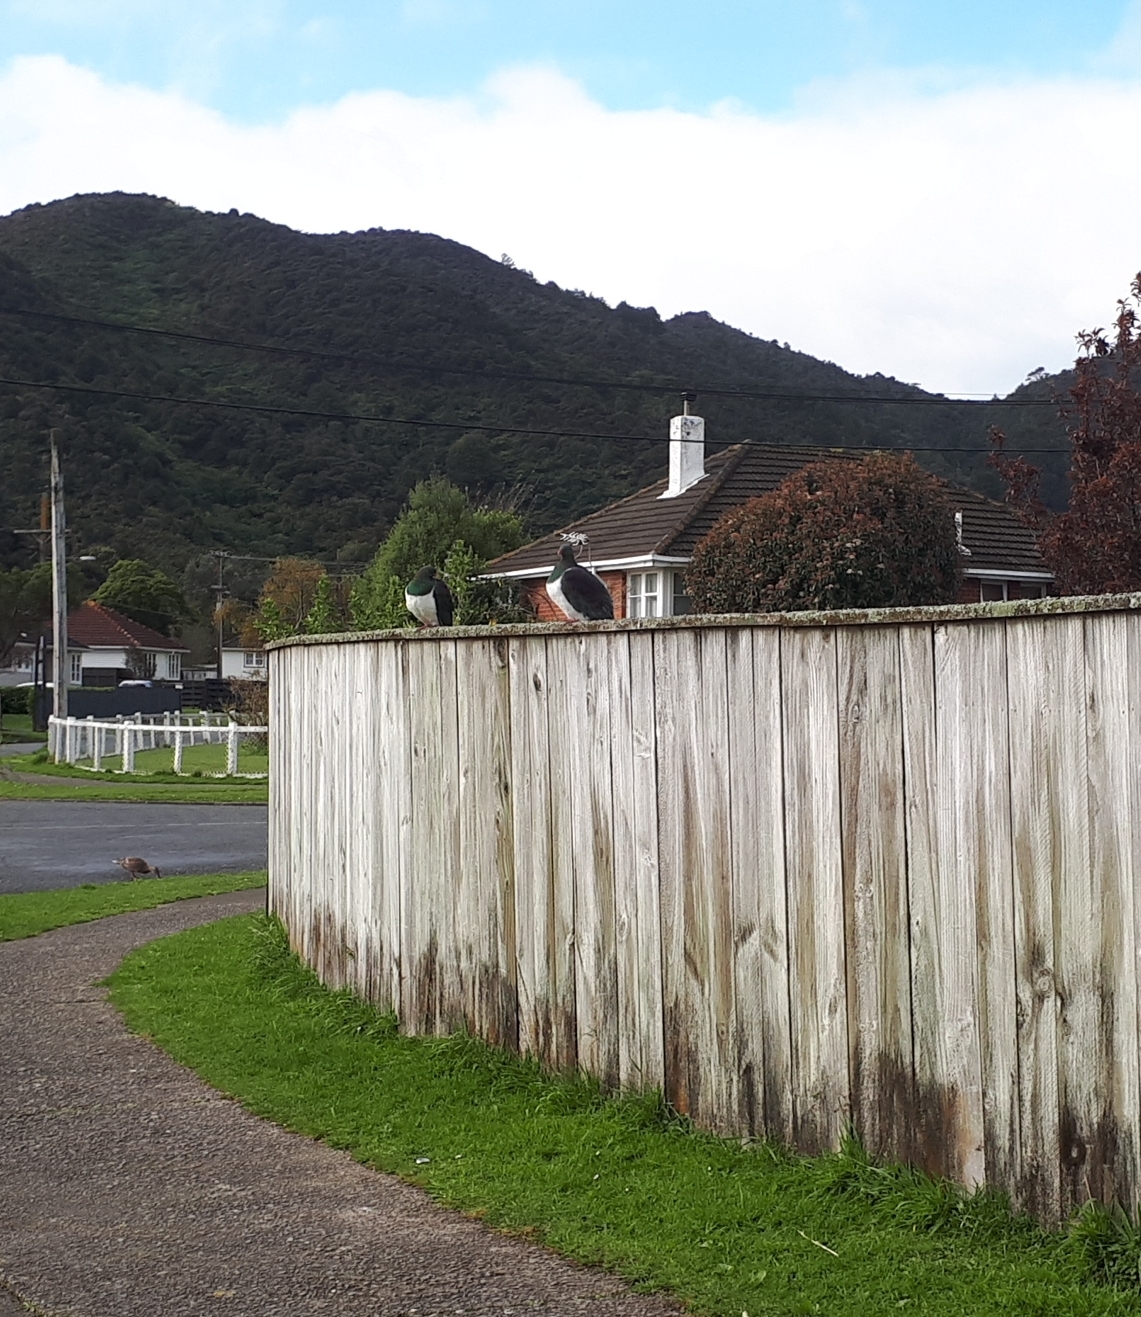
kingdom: Animalia
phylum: Chordata
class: Aves
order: Columbiformes
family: Columbidae
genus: Hemiphaga
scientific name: Hemiphaga novaeseelandiae
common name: New zealand pigeon
